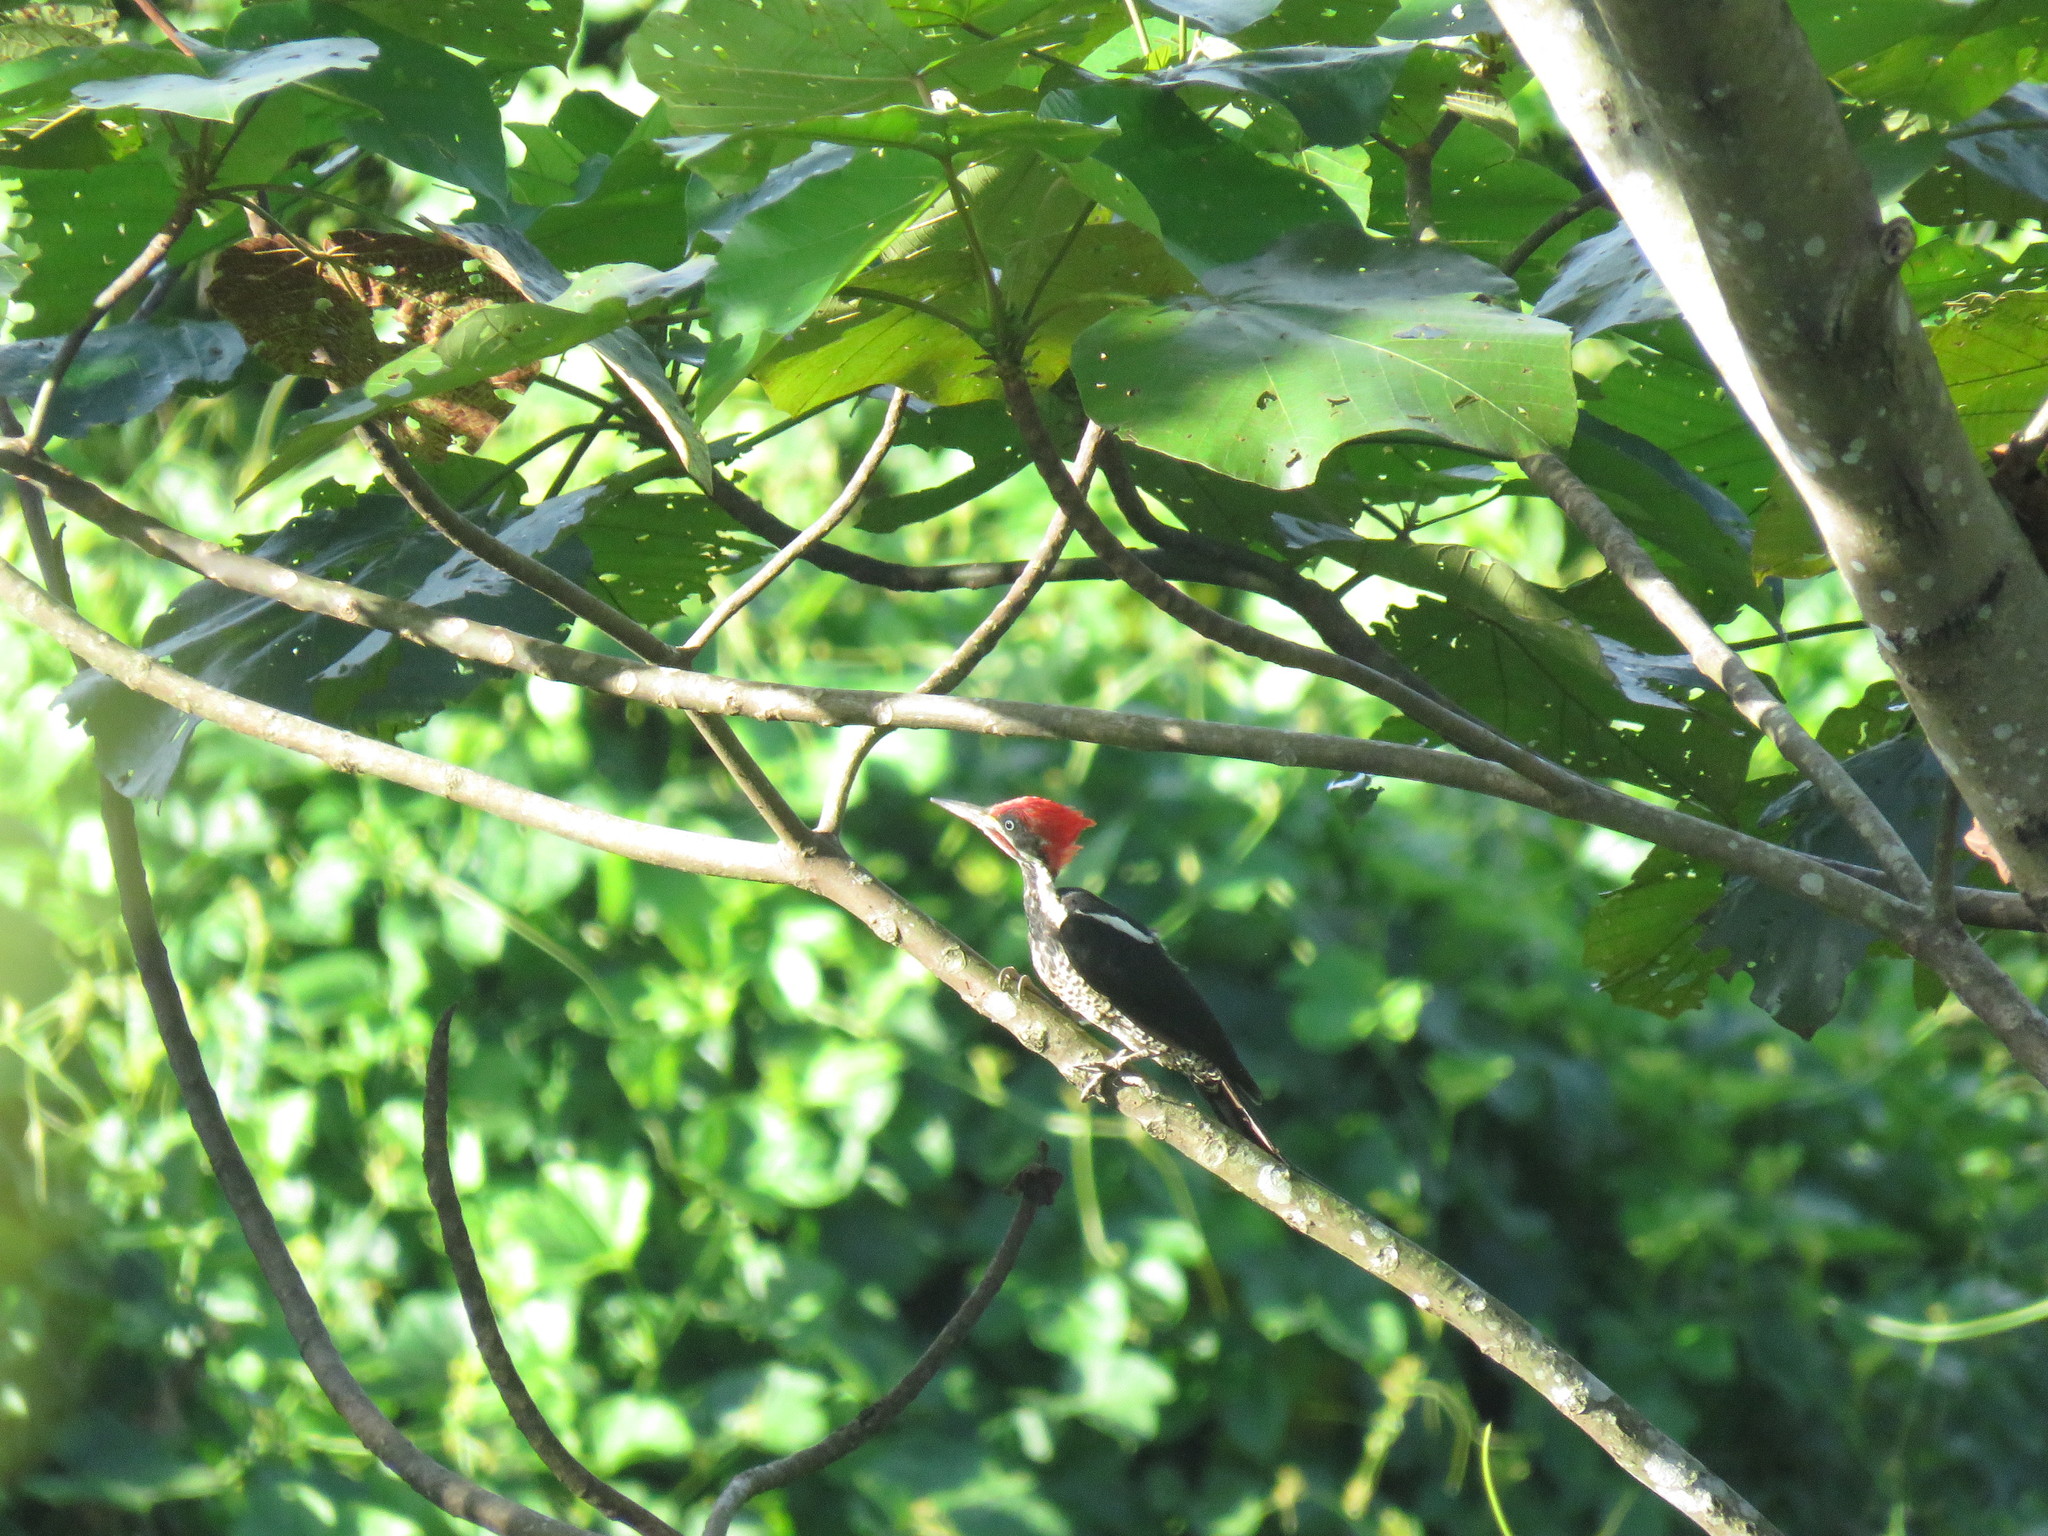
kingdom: Animalia
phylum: Chordata
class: Aves
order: Piciformes
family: Picidae
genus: Dryocopus
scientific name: Dryocopus lineatus
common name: Lineated woodpecker
